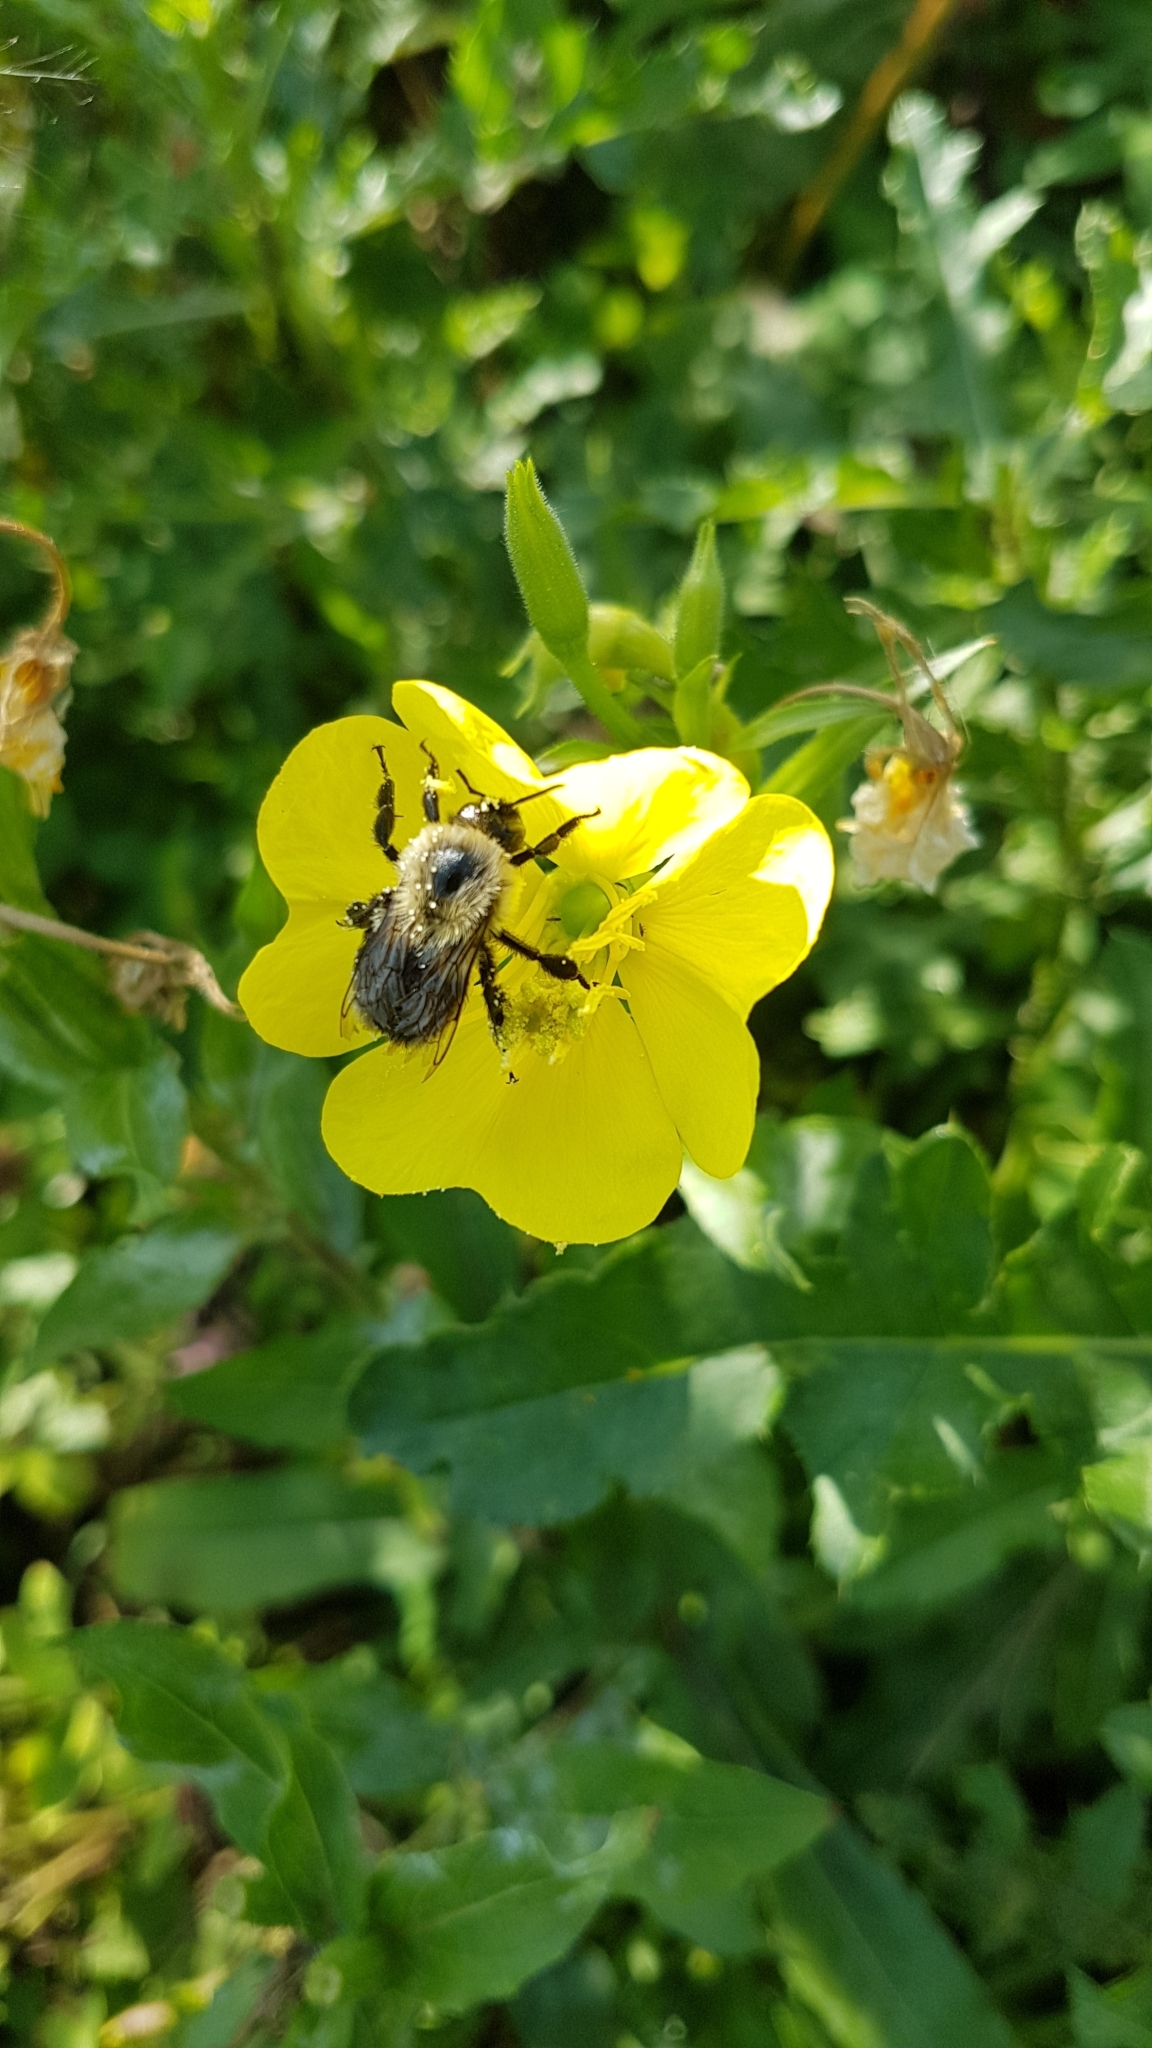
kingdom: Animalia
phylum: Arthropoda
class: Insecta
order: Hymenoptera
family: Apidae
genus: Bombus
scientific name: Bombus impatiens
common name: Common eastern bumble bee
